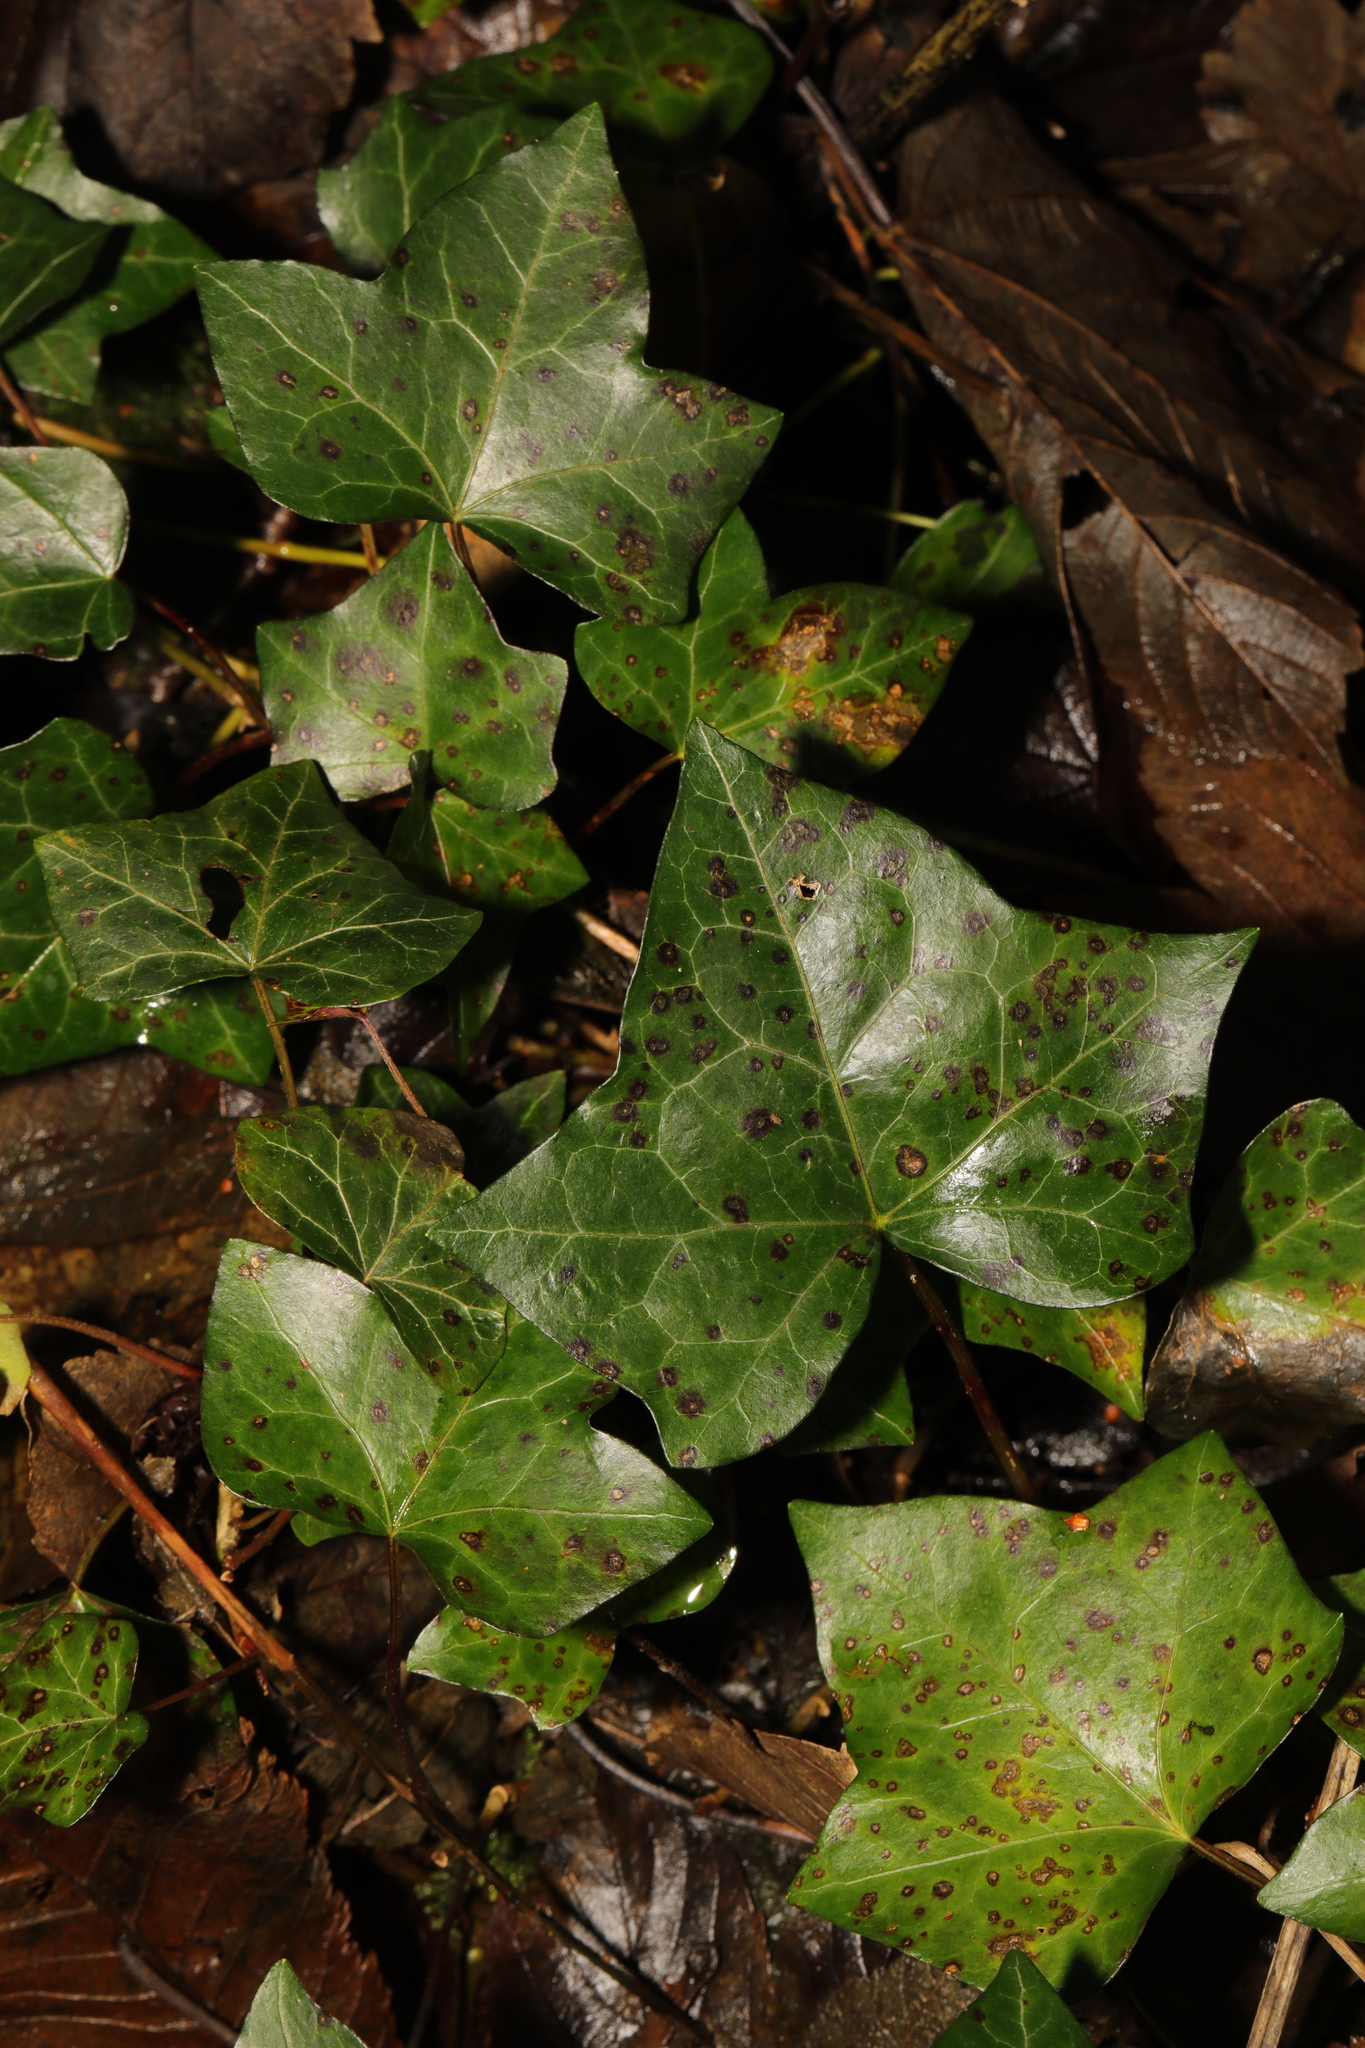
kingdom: Plantae
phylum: Tracheophyta
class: Magnoliopsida
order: Apiales
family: Araliaceae
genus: Hedera
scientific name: Hedera helix
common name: Ivy
